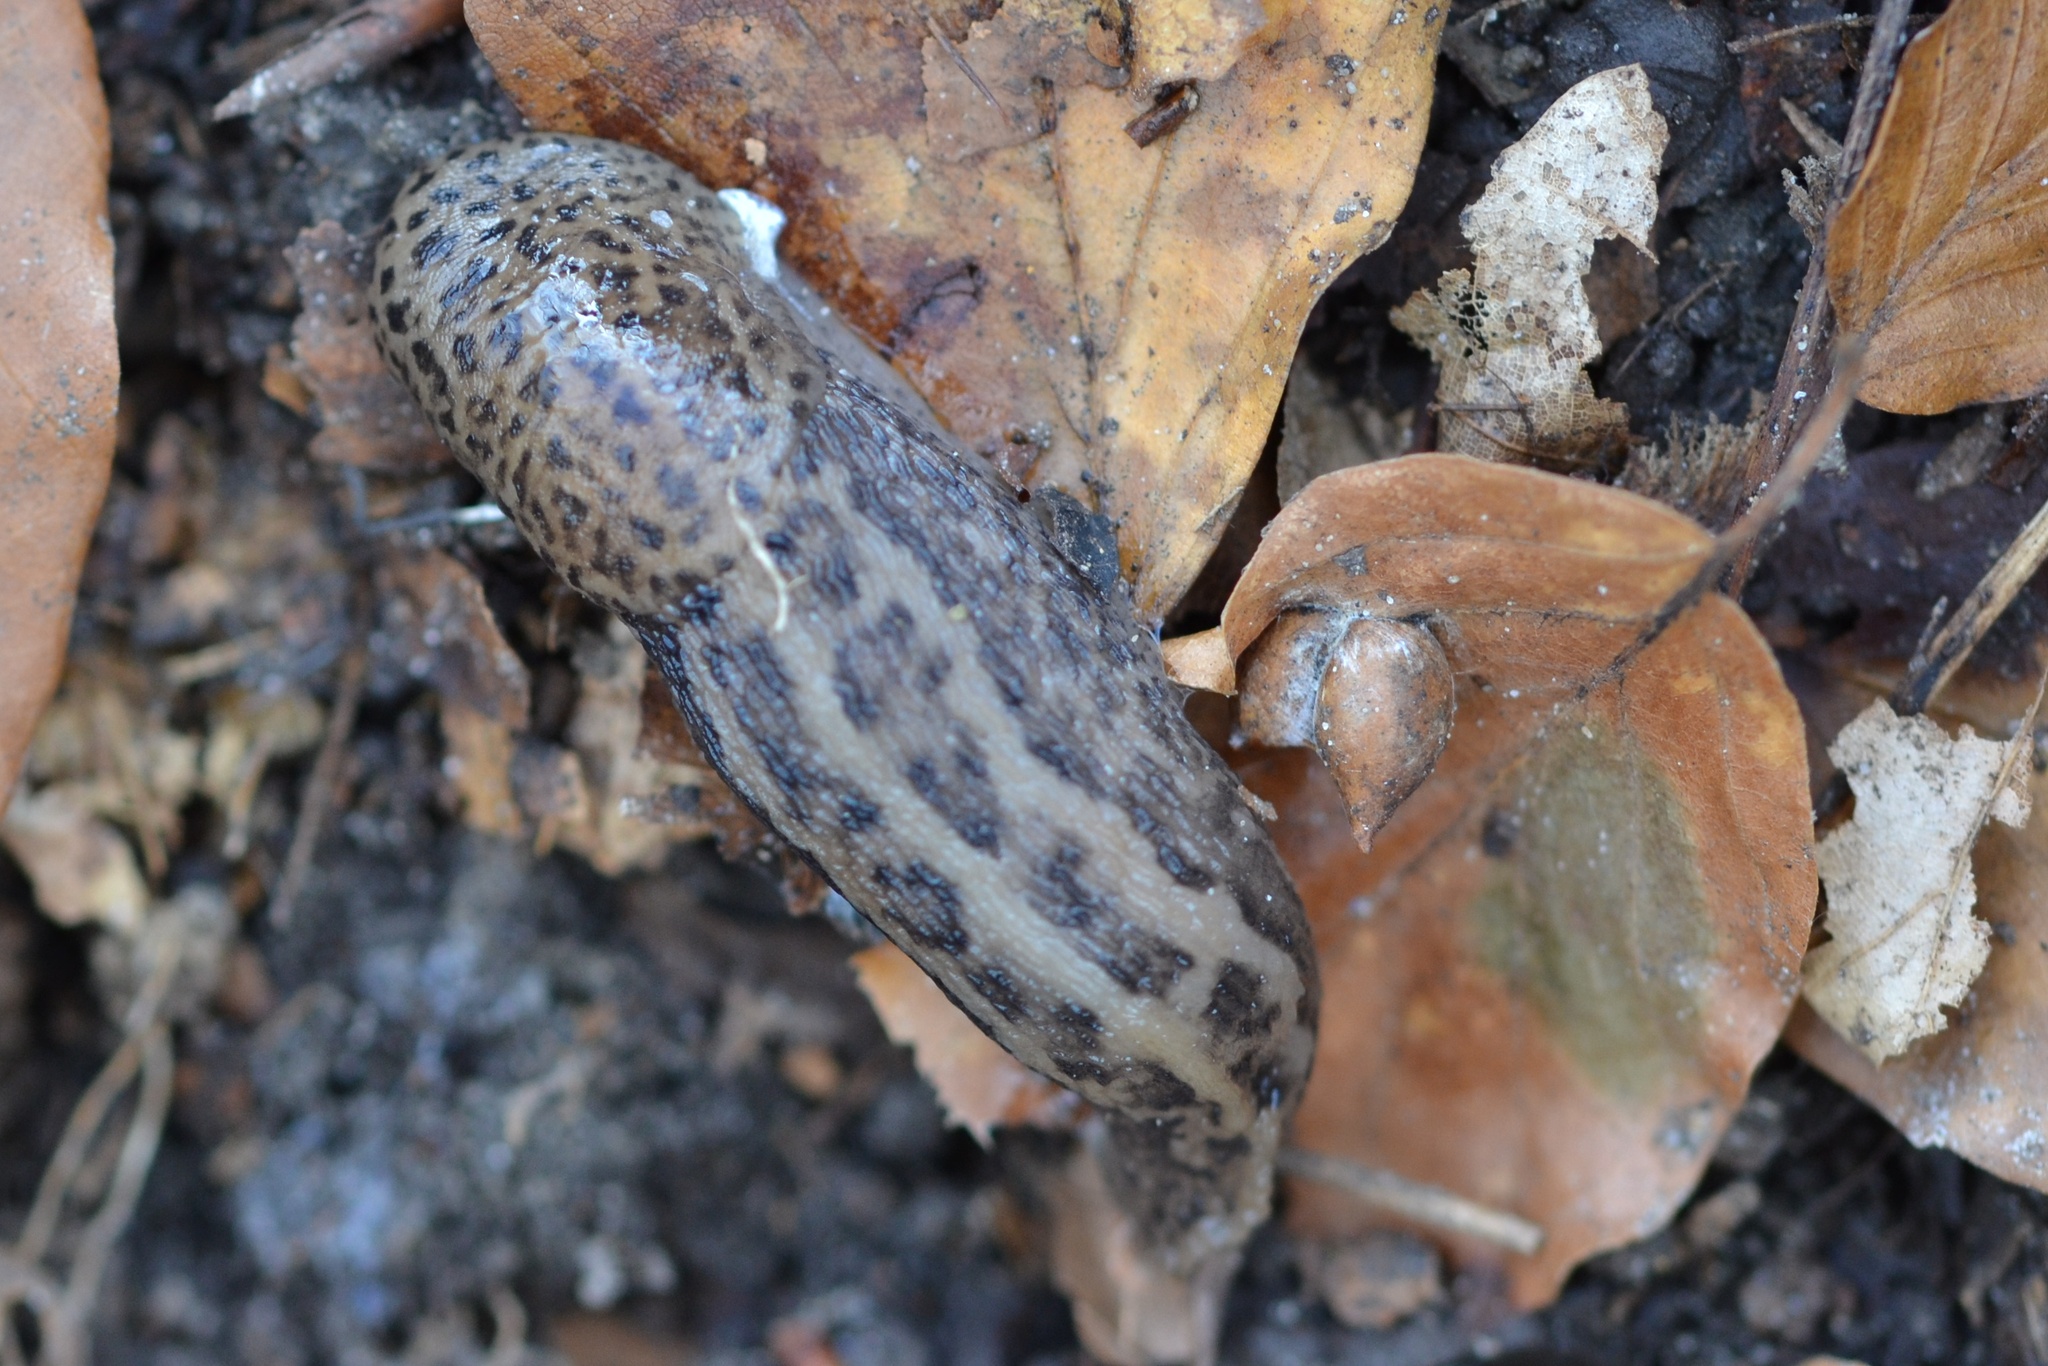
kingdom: Animalia
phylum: Mollusca
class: Gastropoda
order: Stylommatophora
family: Limacidae
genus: Limax
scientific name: Limax maximus
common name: Great grey slug
